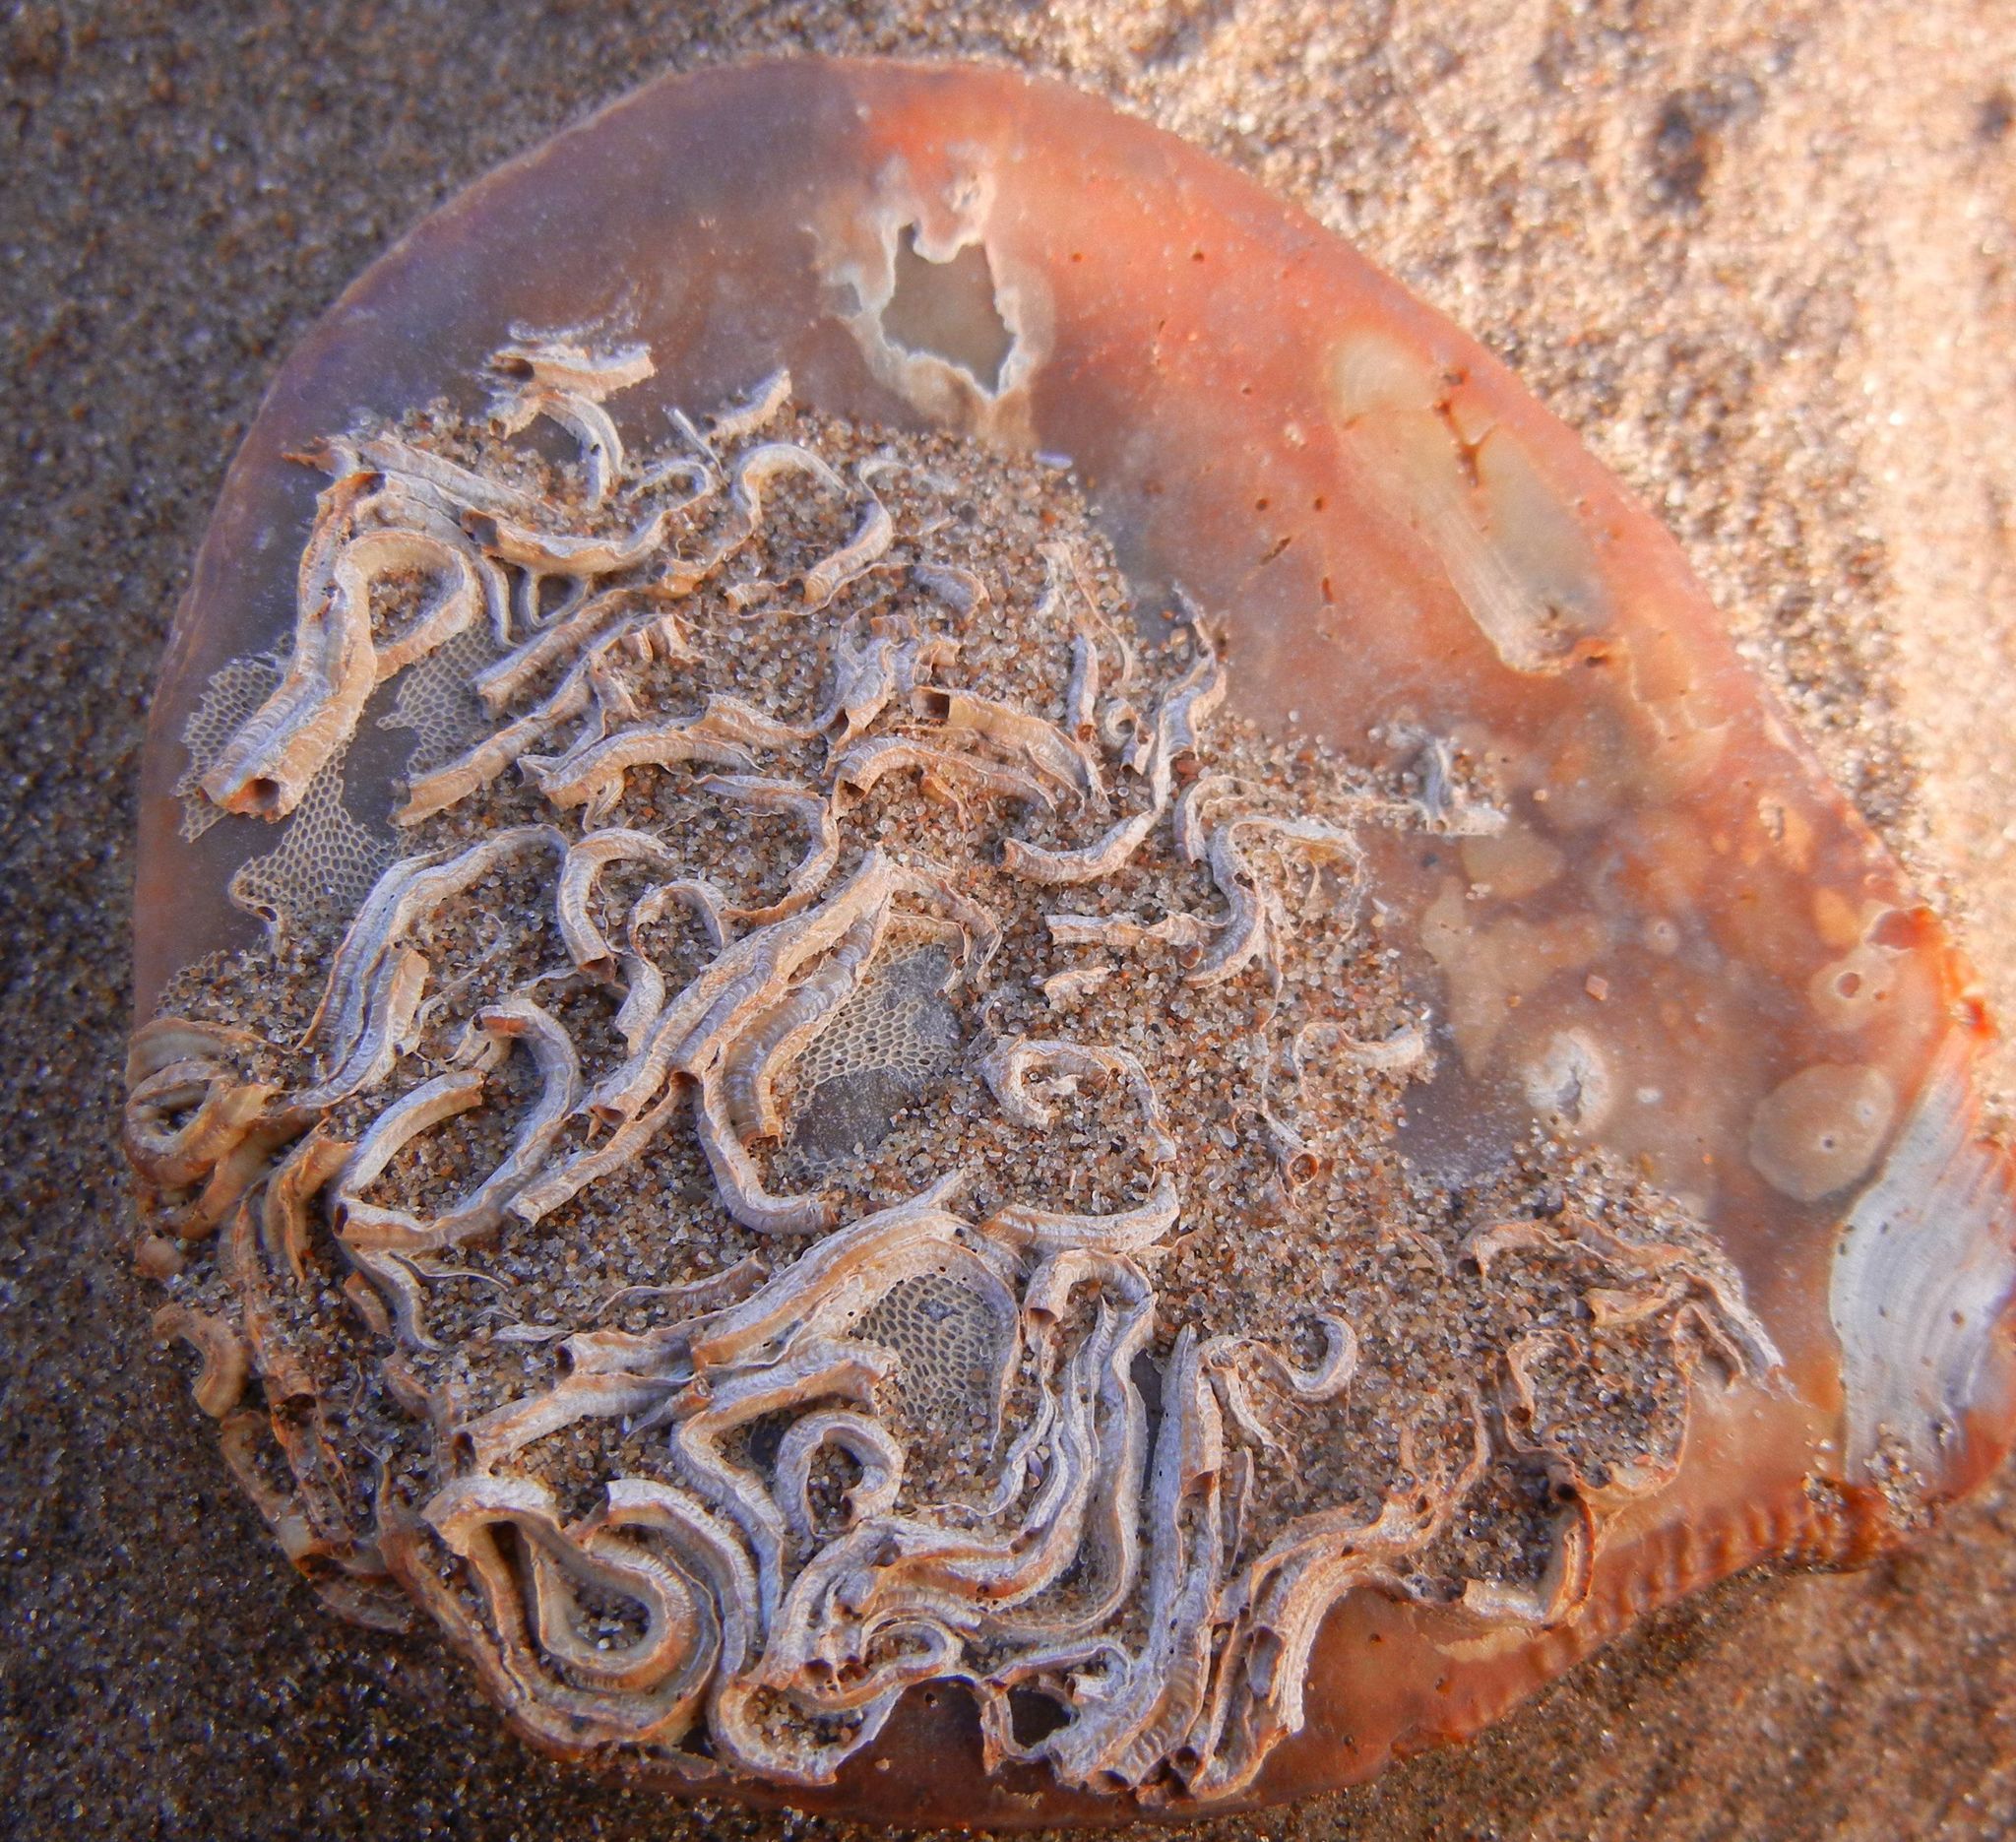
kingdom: Animalia
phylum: Annelida
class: Polychaeta
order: Sabellida
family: Serpulidae
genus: Spirobranchus
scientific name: Spirobranchus triqueter
